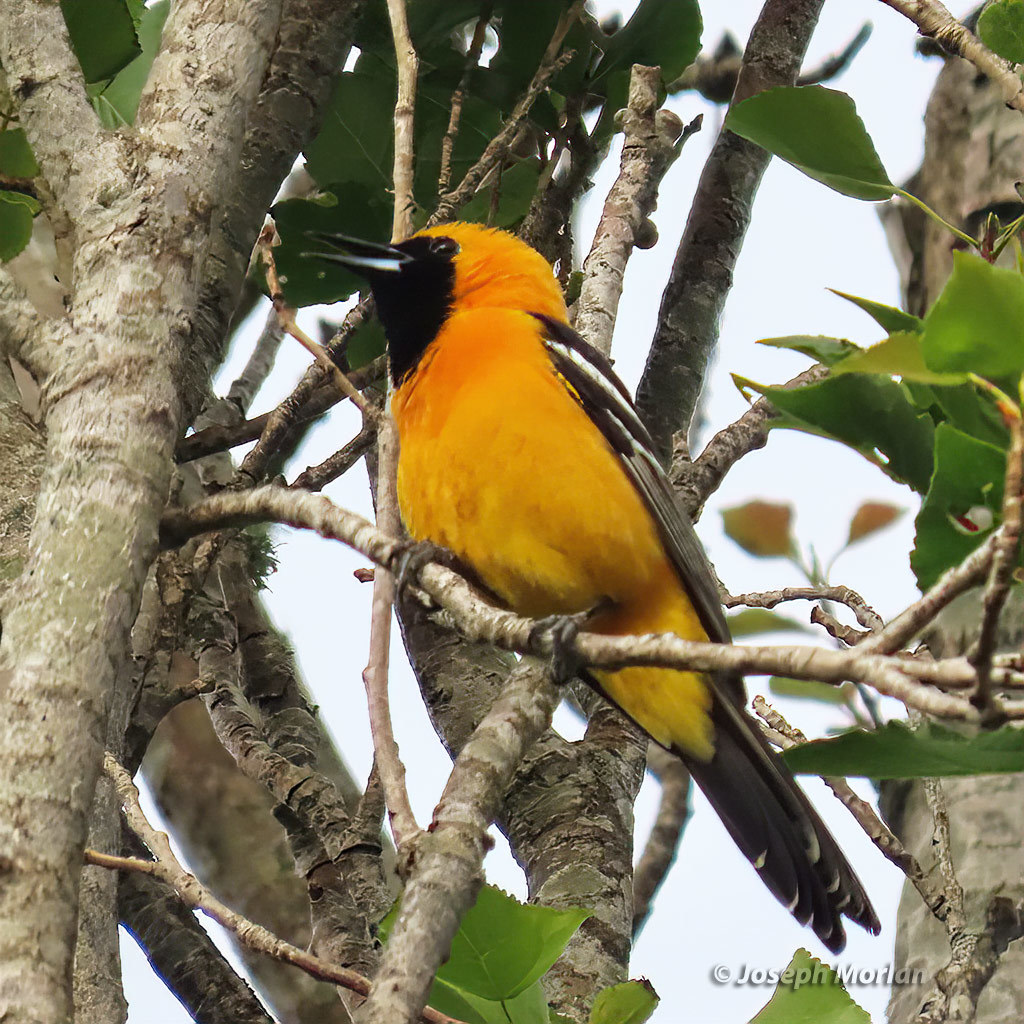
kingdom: Animalia
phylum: Chordata
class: Aves
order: Passeriformes
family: Icteridae
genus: Icterus
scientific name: Icterus cucullatus
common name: Hooded oriole
